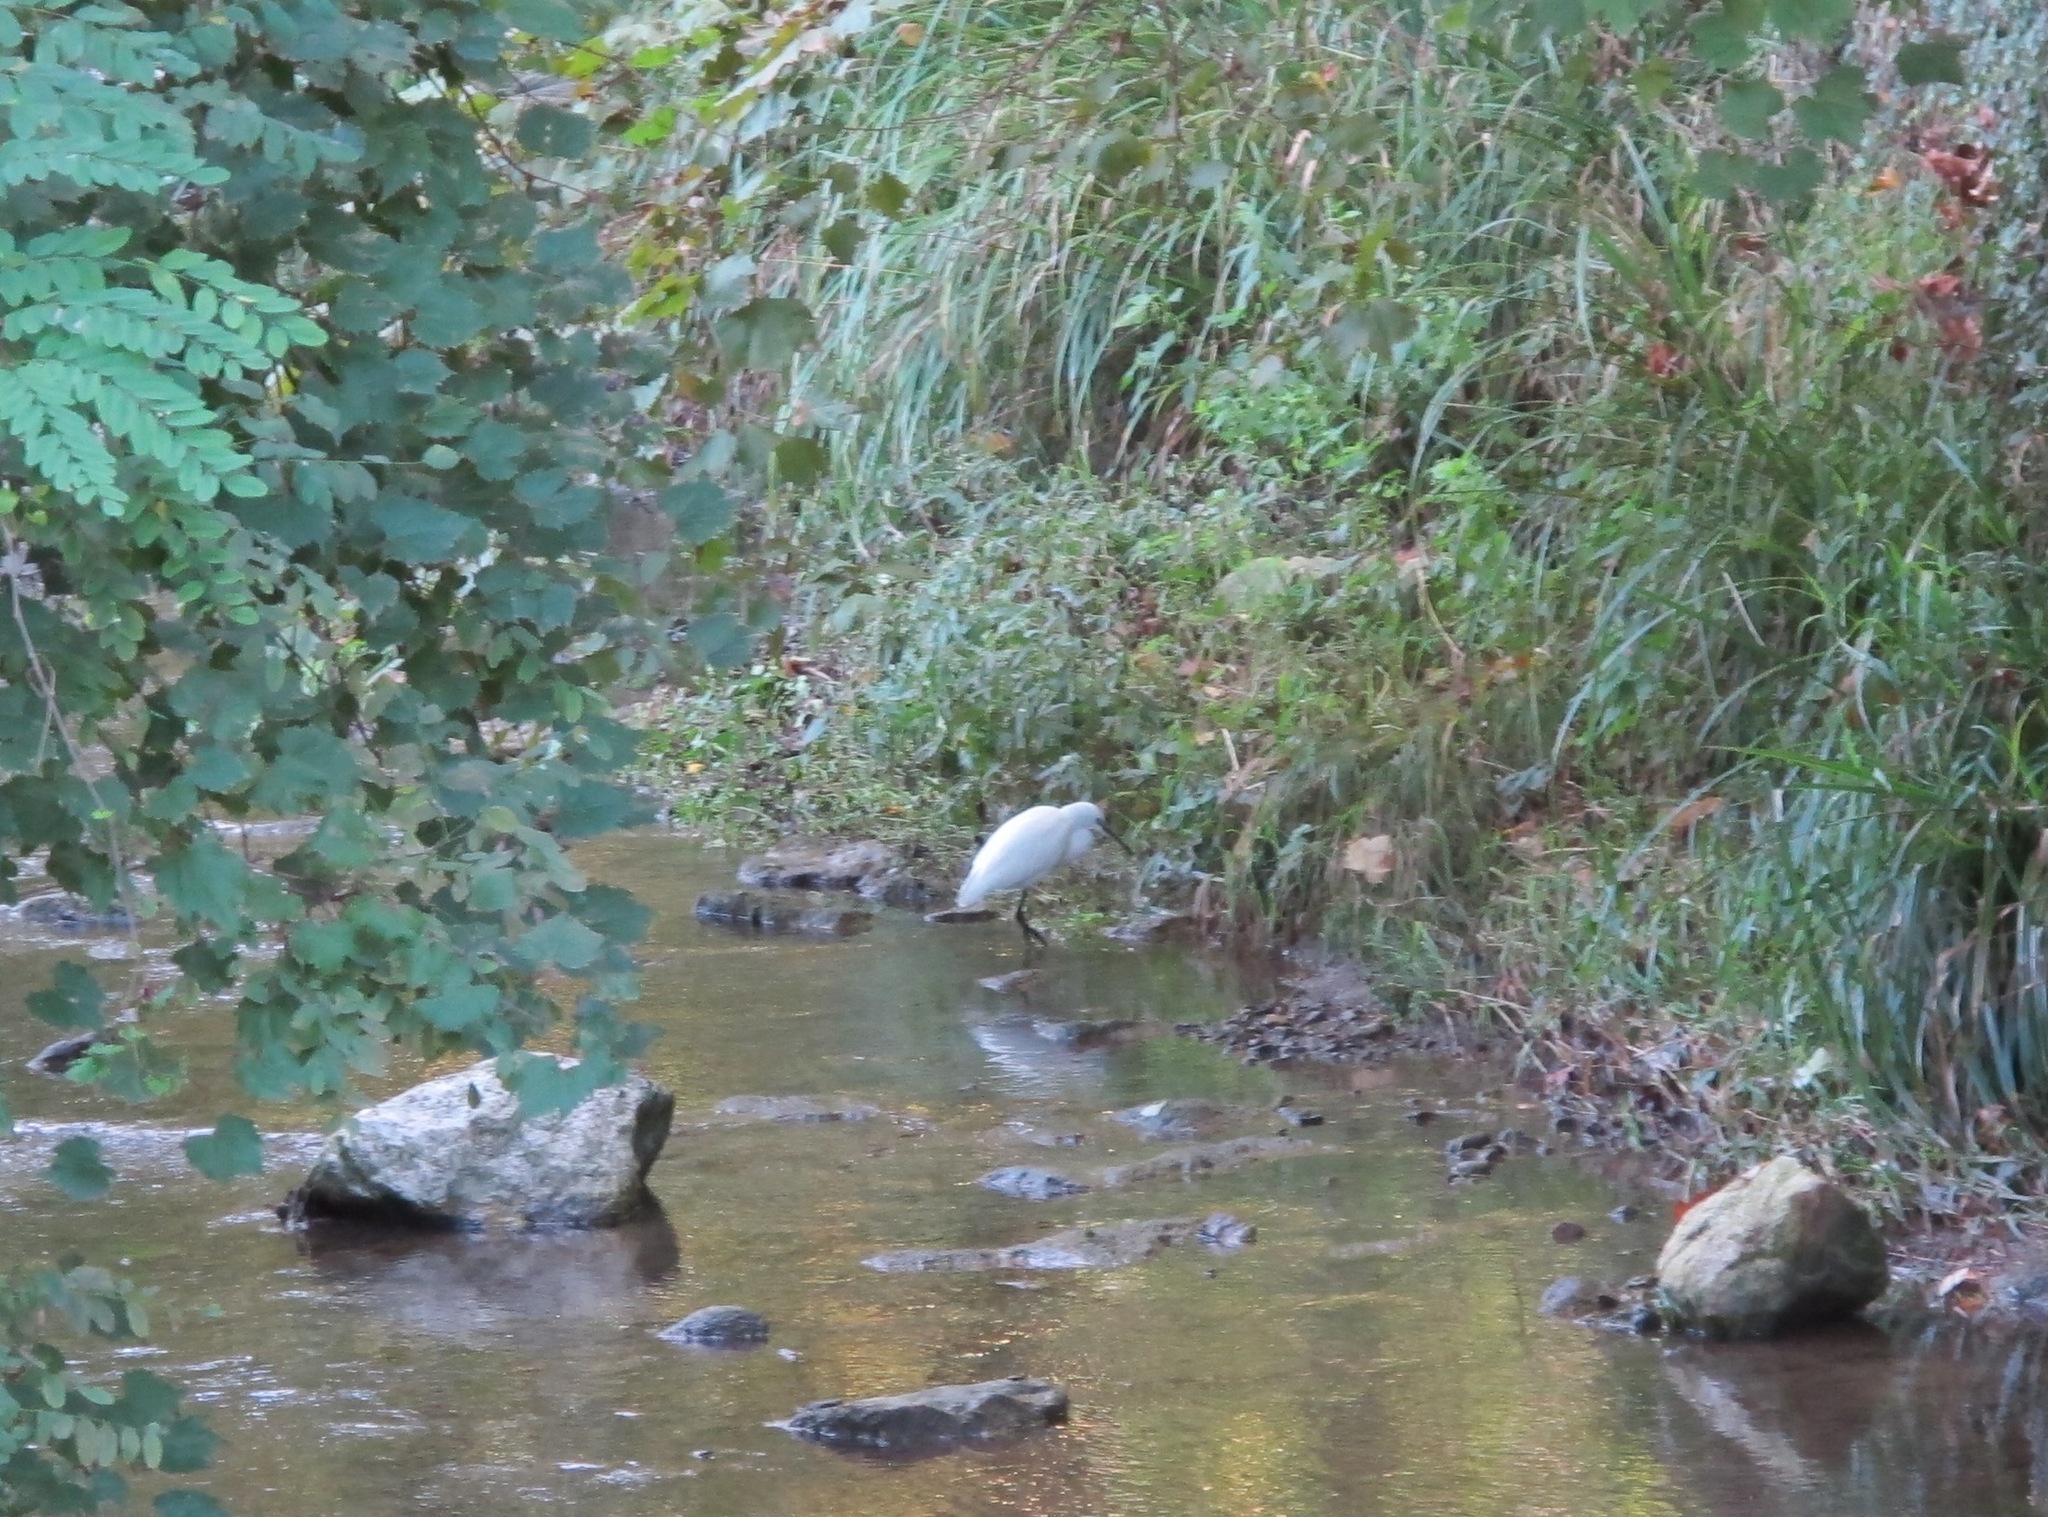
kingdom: Animalia
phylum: Chordata
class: Aves
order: Pelecaniformes
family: Ardeidae
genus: Egretta
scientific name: Egretta garzetta
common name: Little egret
